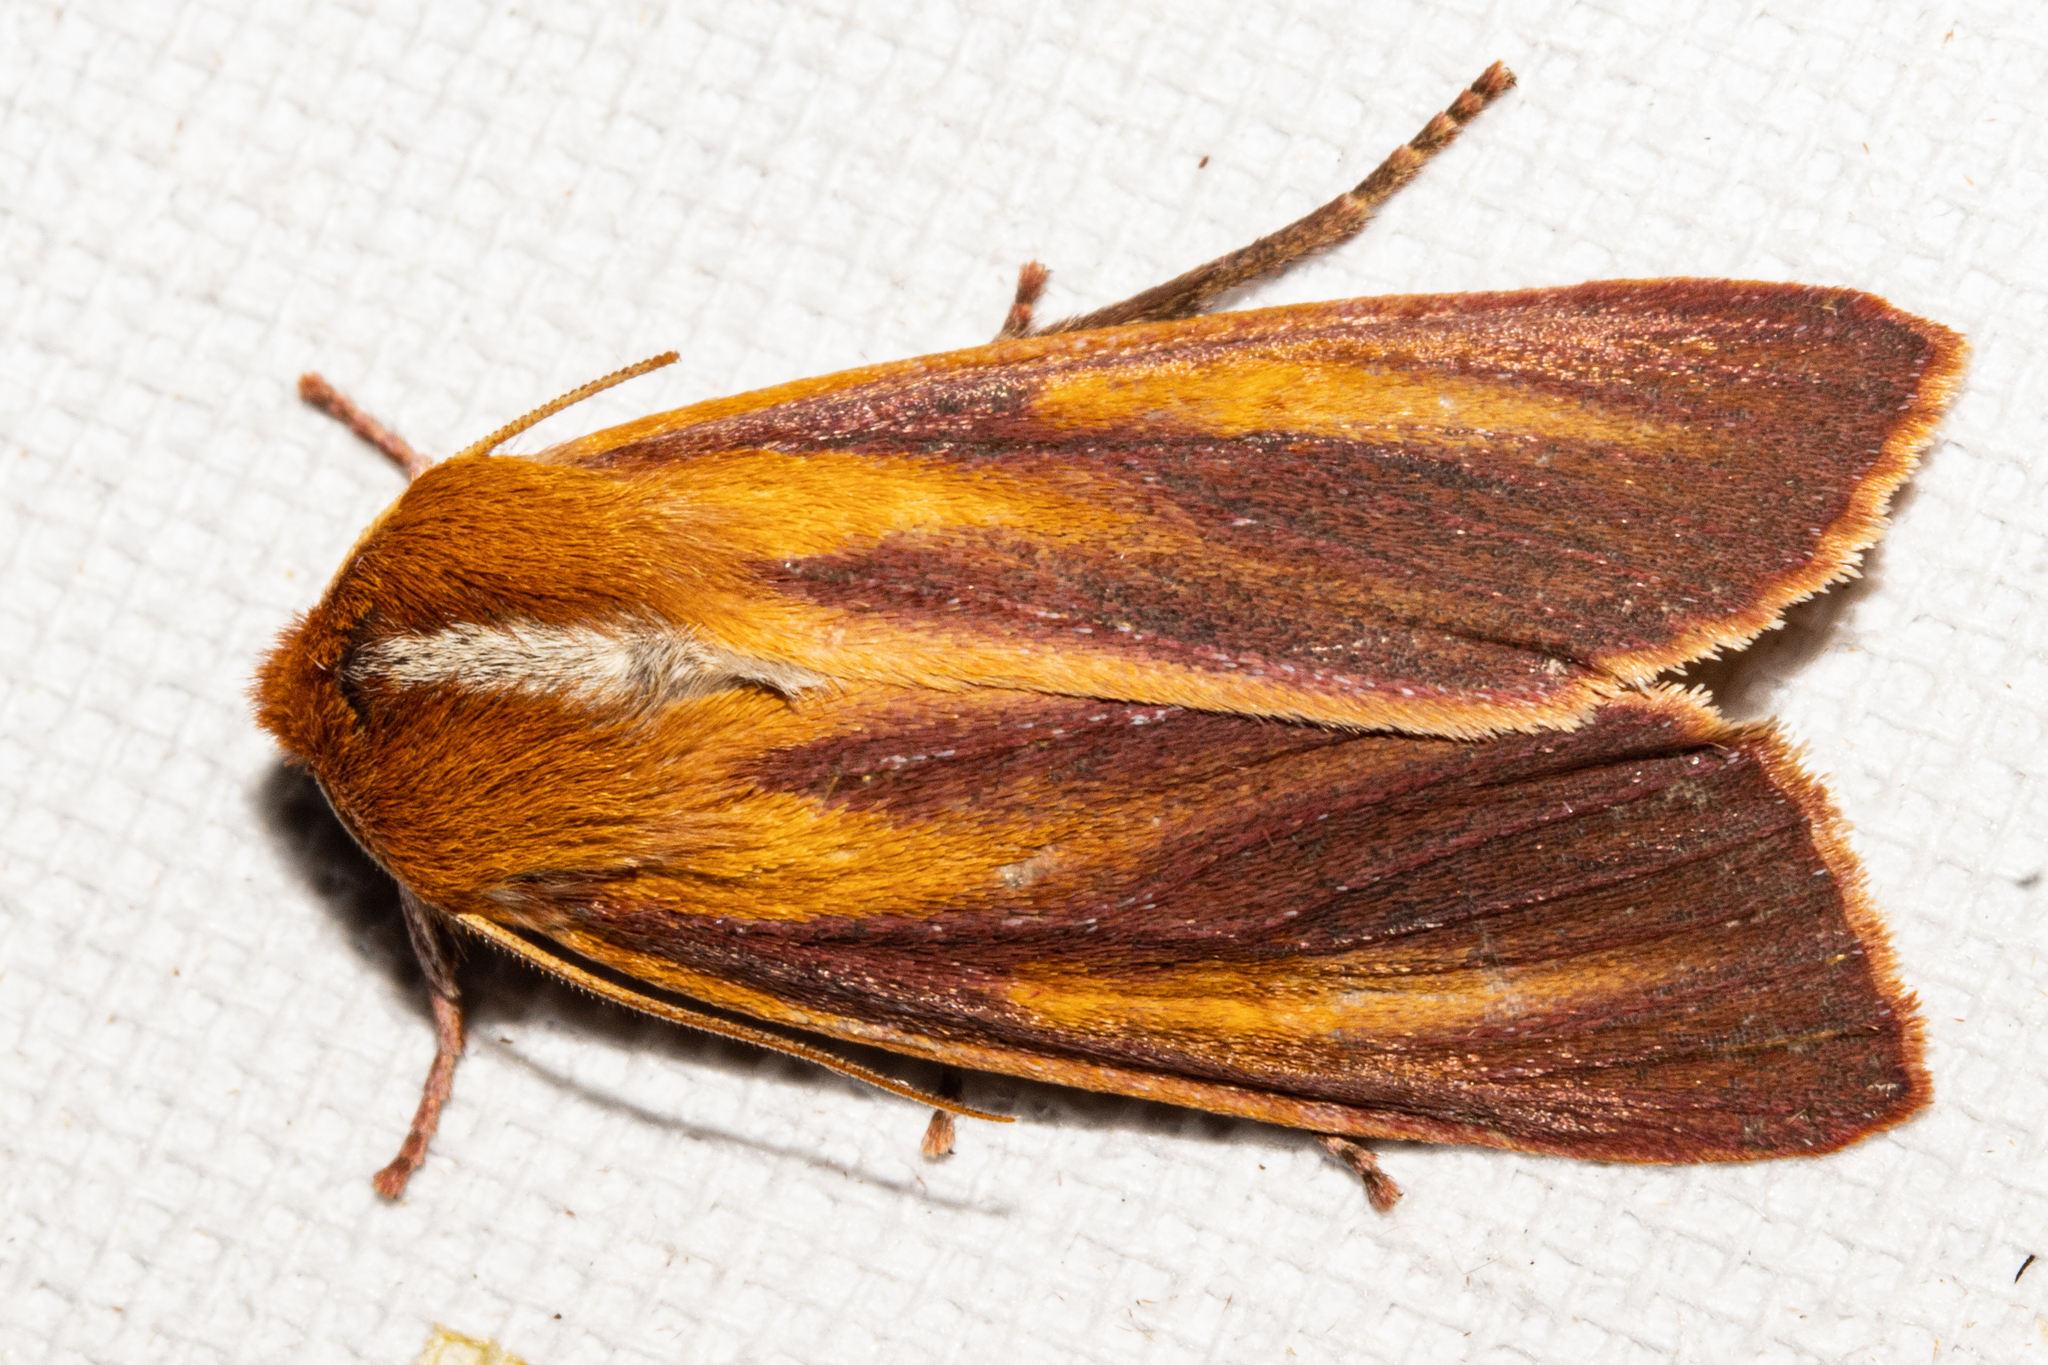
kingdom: Animalia
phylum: Arthropoda
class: Insecta
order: Lepidoptera
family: Noctuidae
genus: Ichneutica
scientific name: Ichneutica
